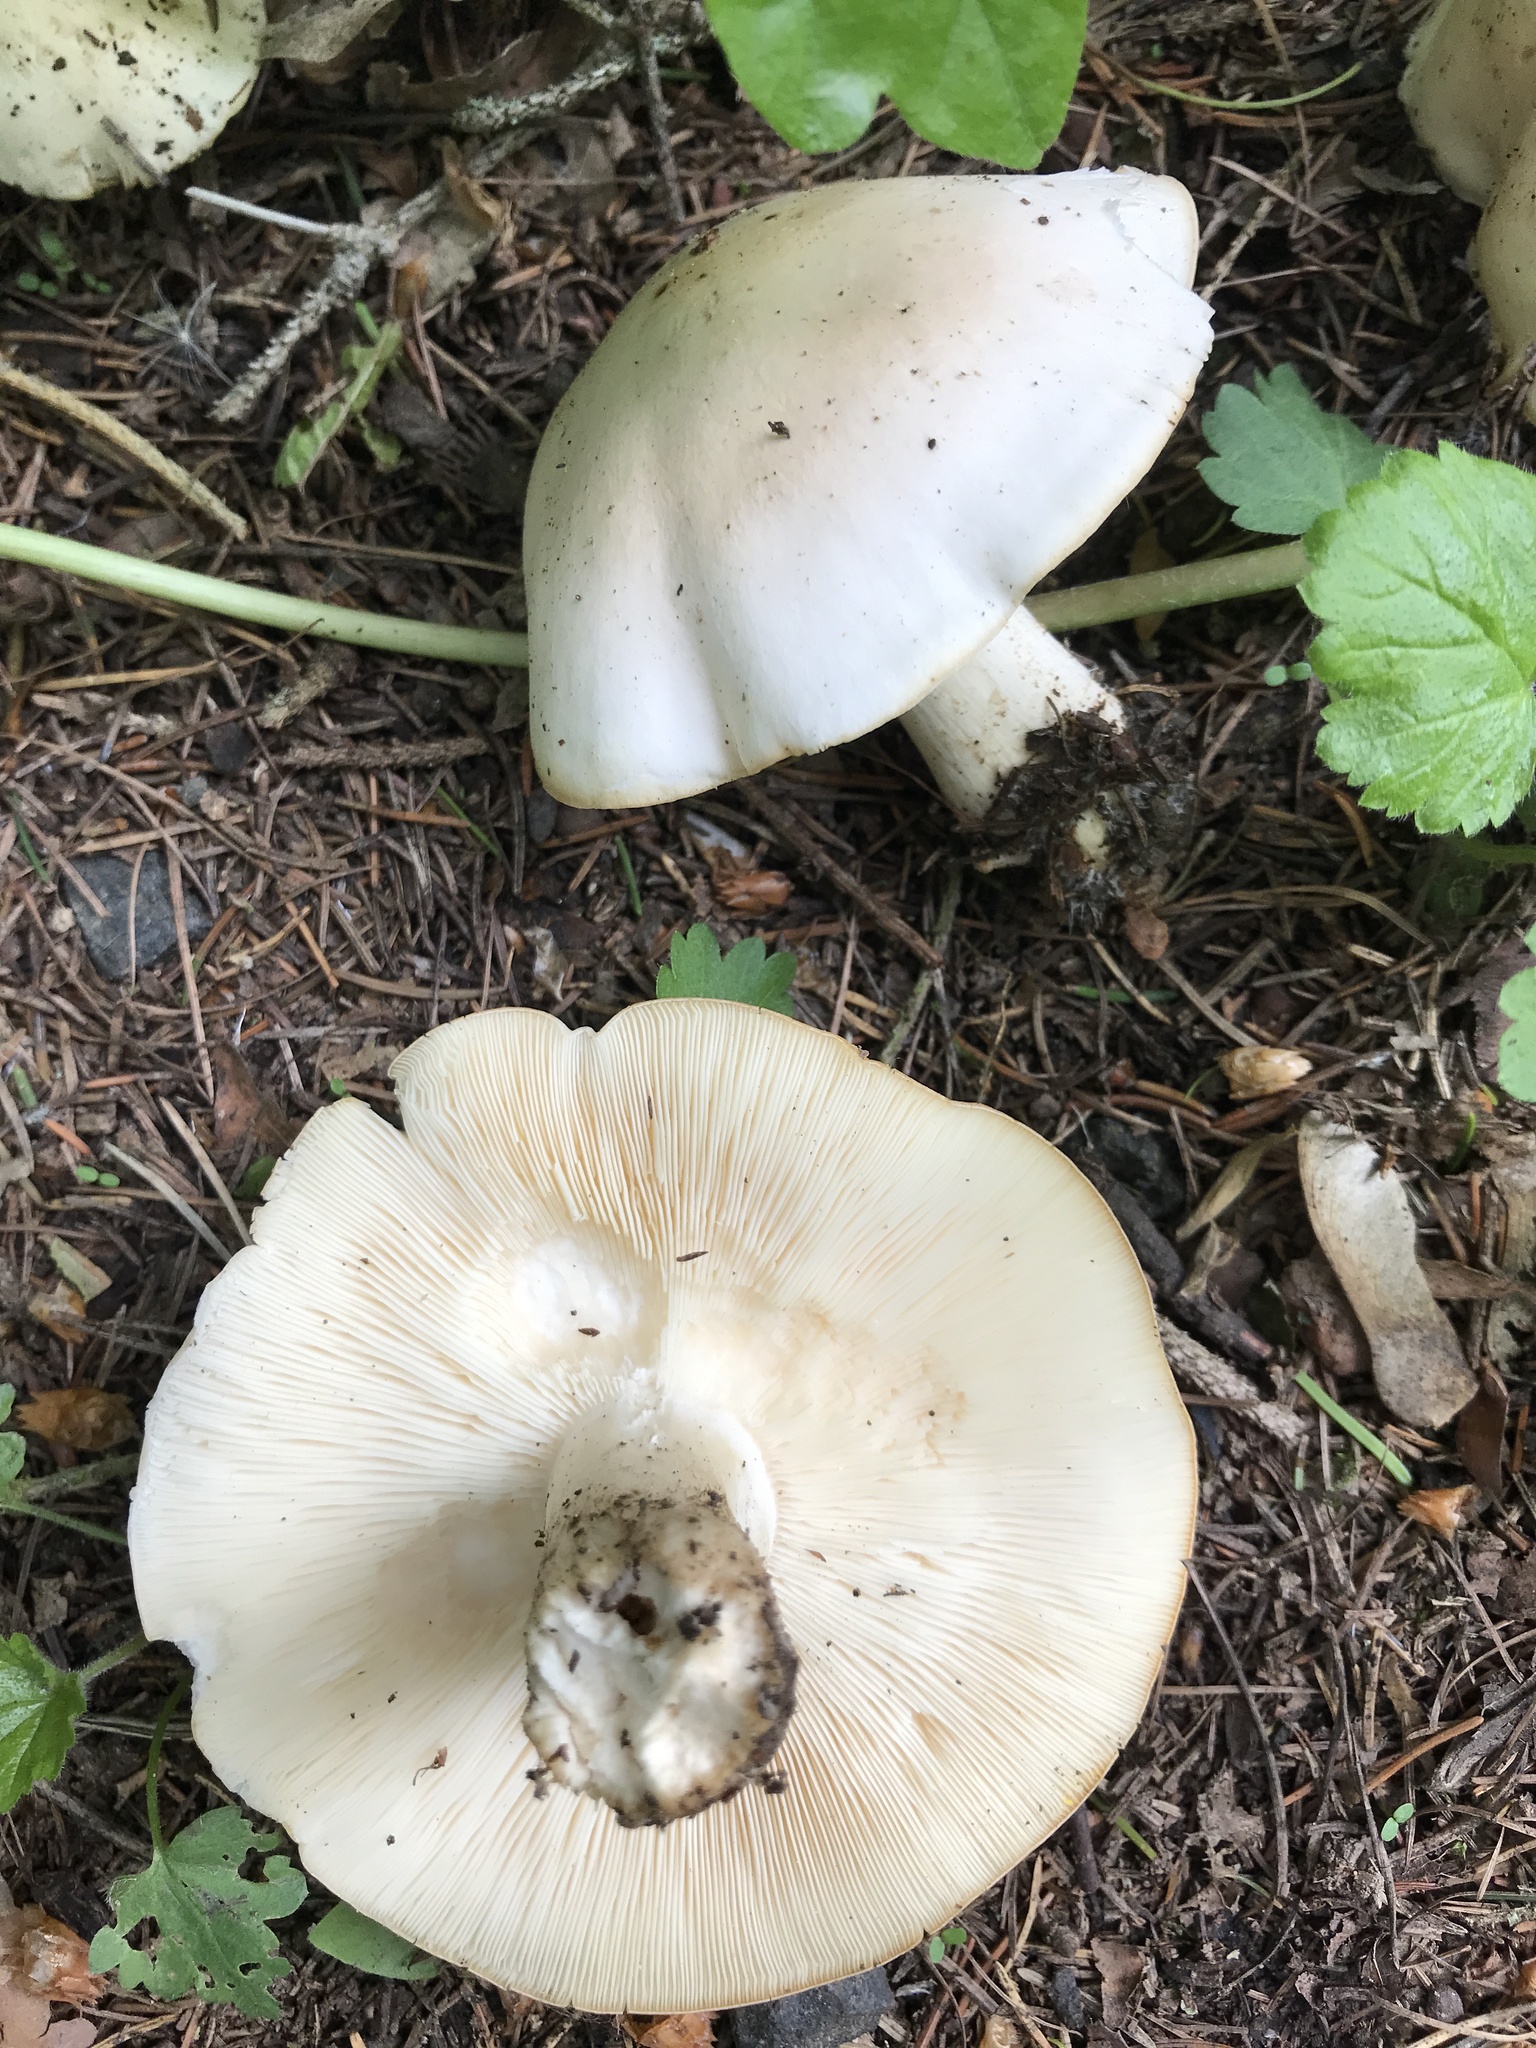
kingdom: Fungi
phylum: Basidiomycota
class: Agaricomycetes
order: Agaricales
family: Lyophyllaceae
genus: Calocybe
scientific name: Calocybe gambosa
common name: St. george's mushroom
